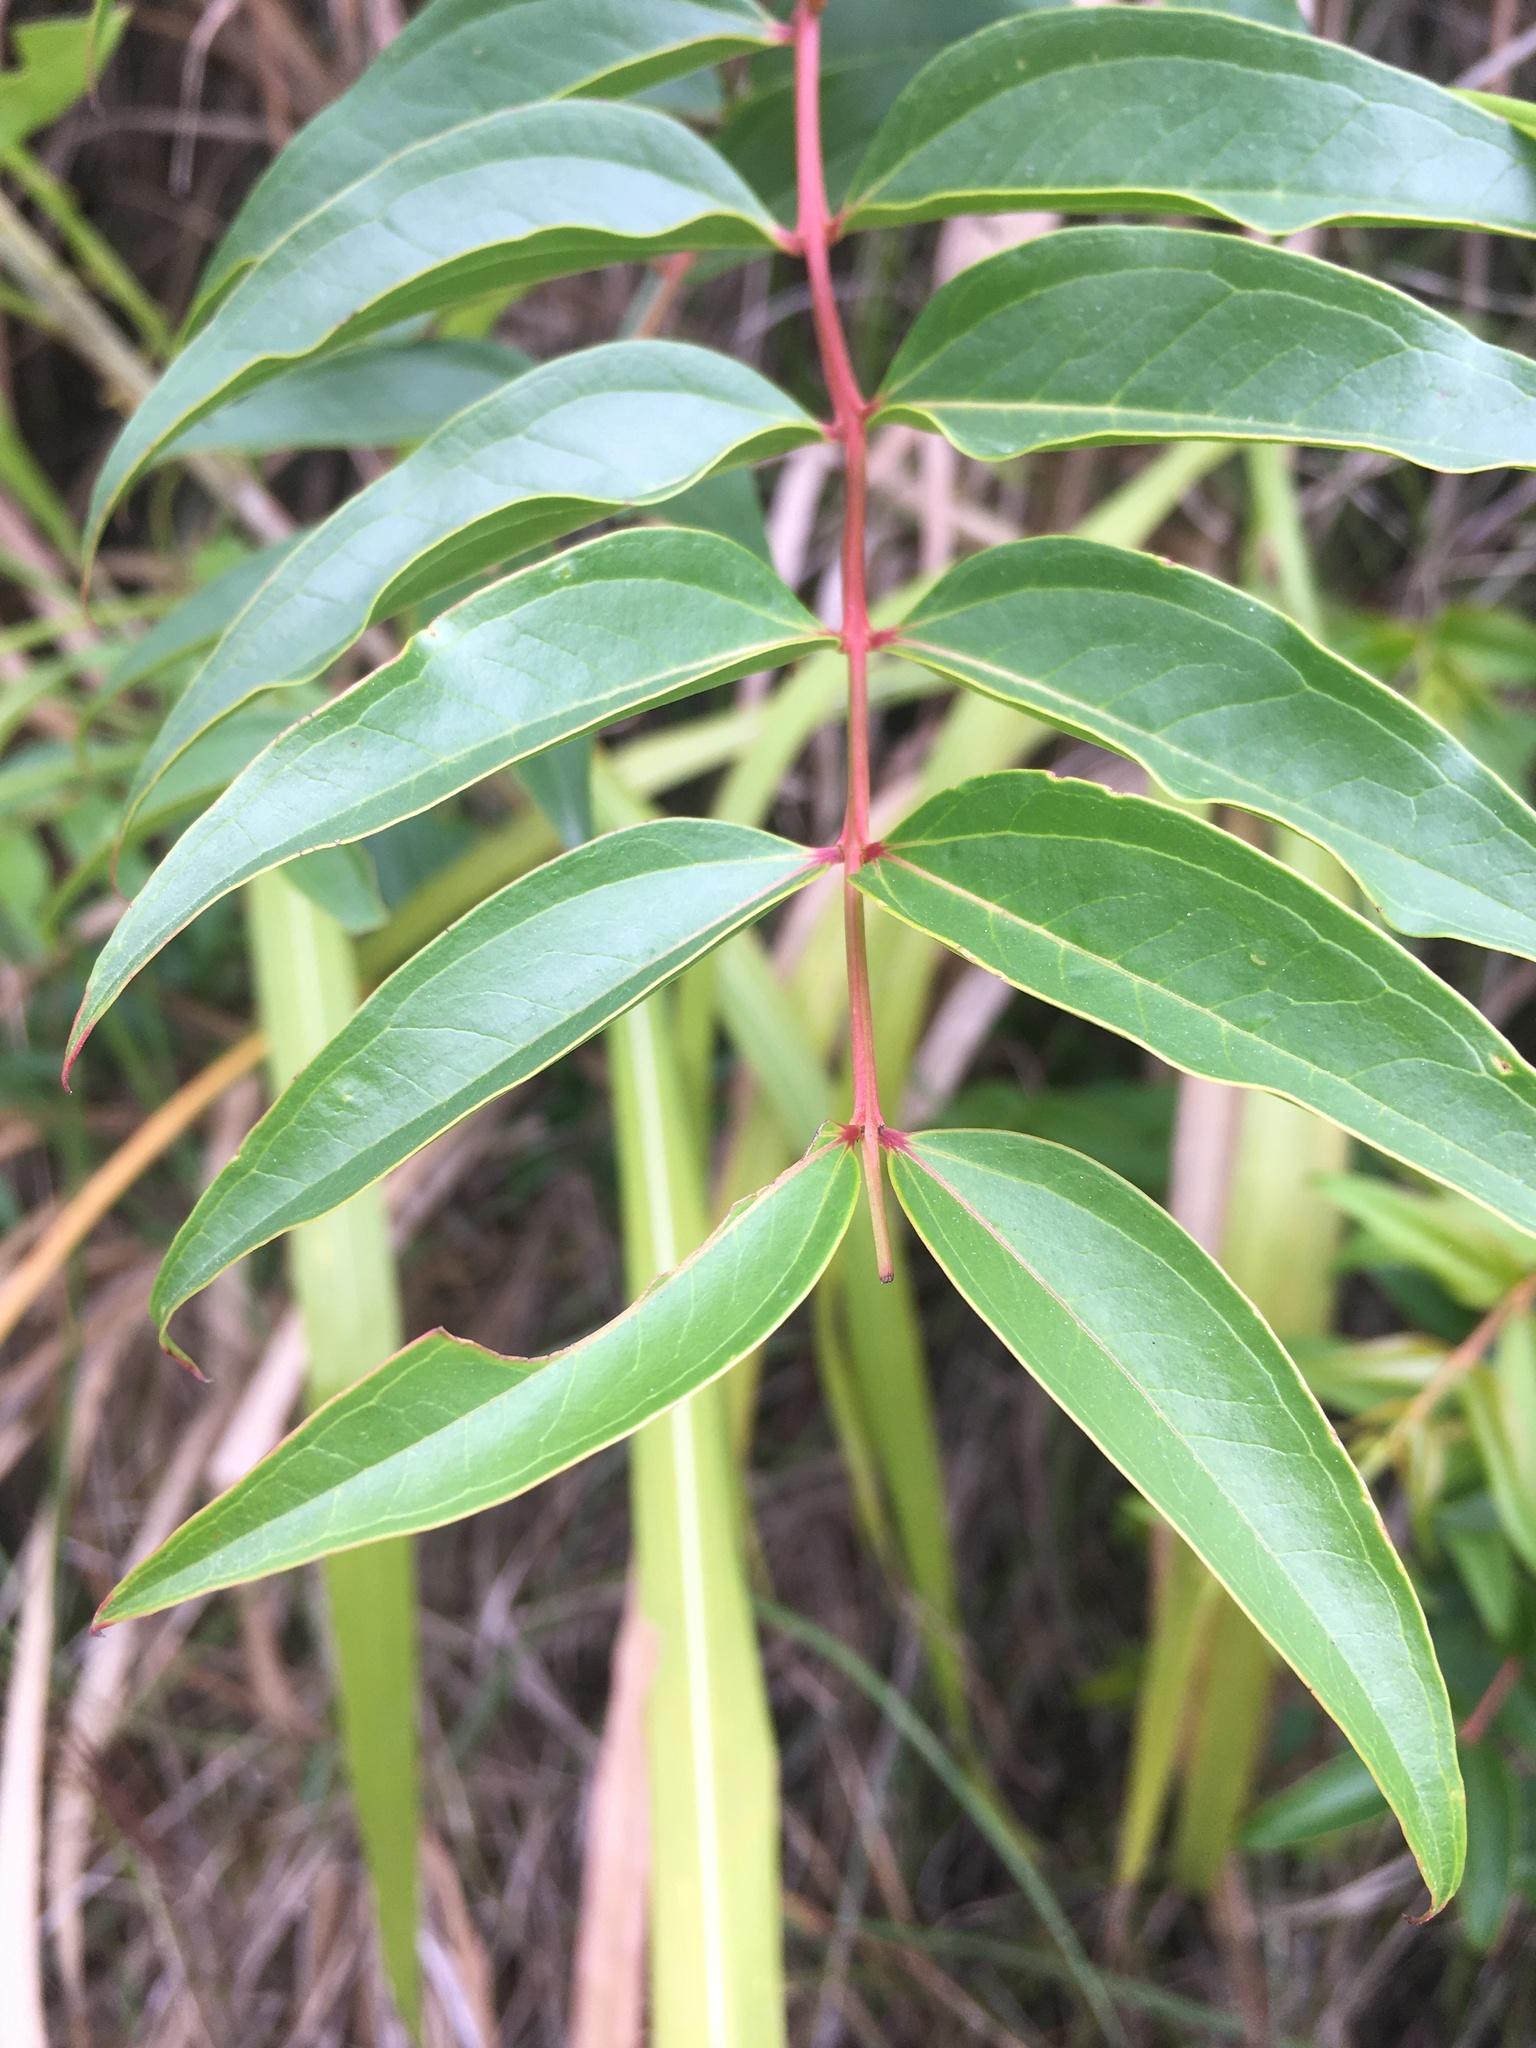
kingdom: Plantae
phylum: Tracheophyta
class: Magnoliopsida
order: Cucurbitales
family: Coriariaceae
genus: Coriaria
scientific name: Coriaria japonica
